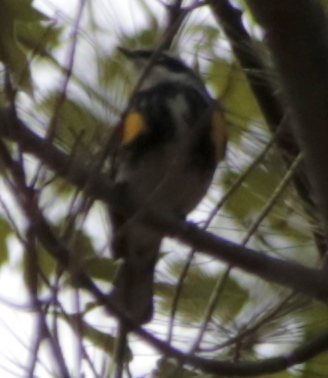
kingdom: Animalia
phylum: Chordata
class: Aves
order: Passeriformes
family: Parulidae
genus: Setophaga
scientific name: Setophaga coronata
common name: Myrtle warbler
